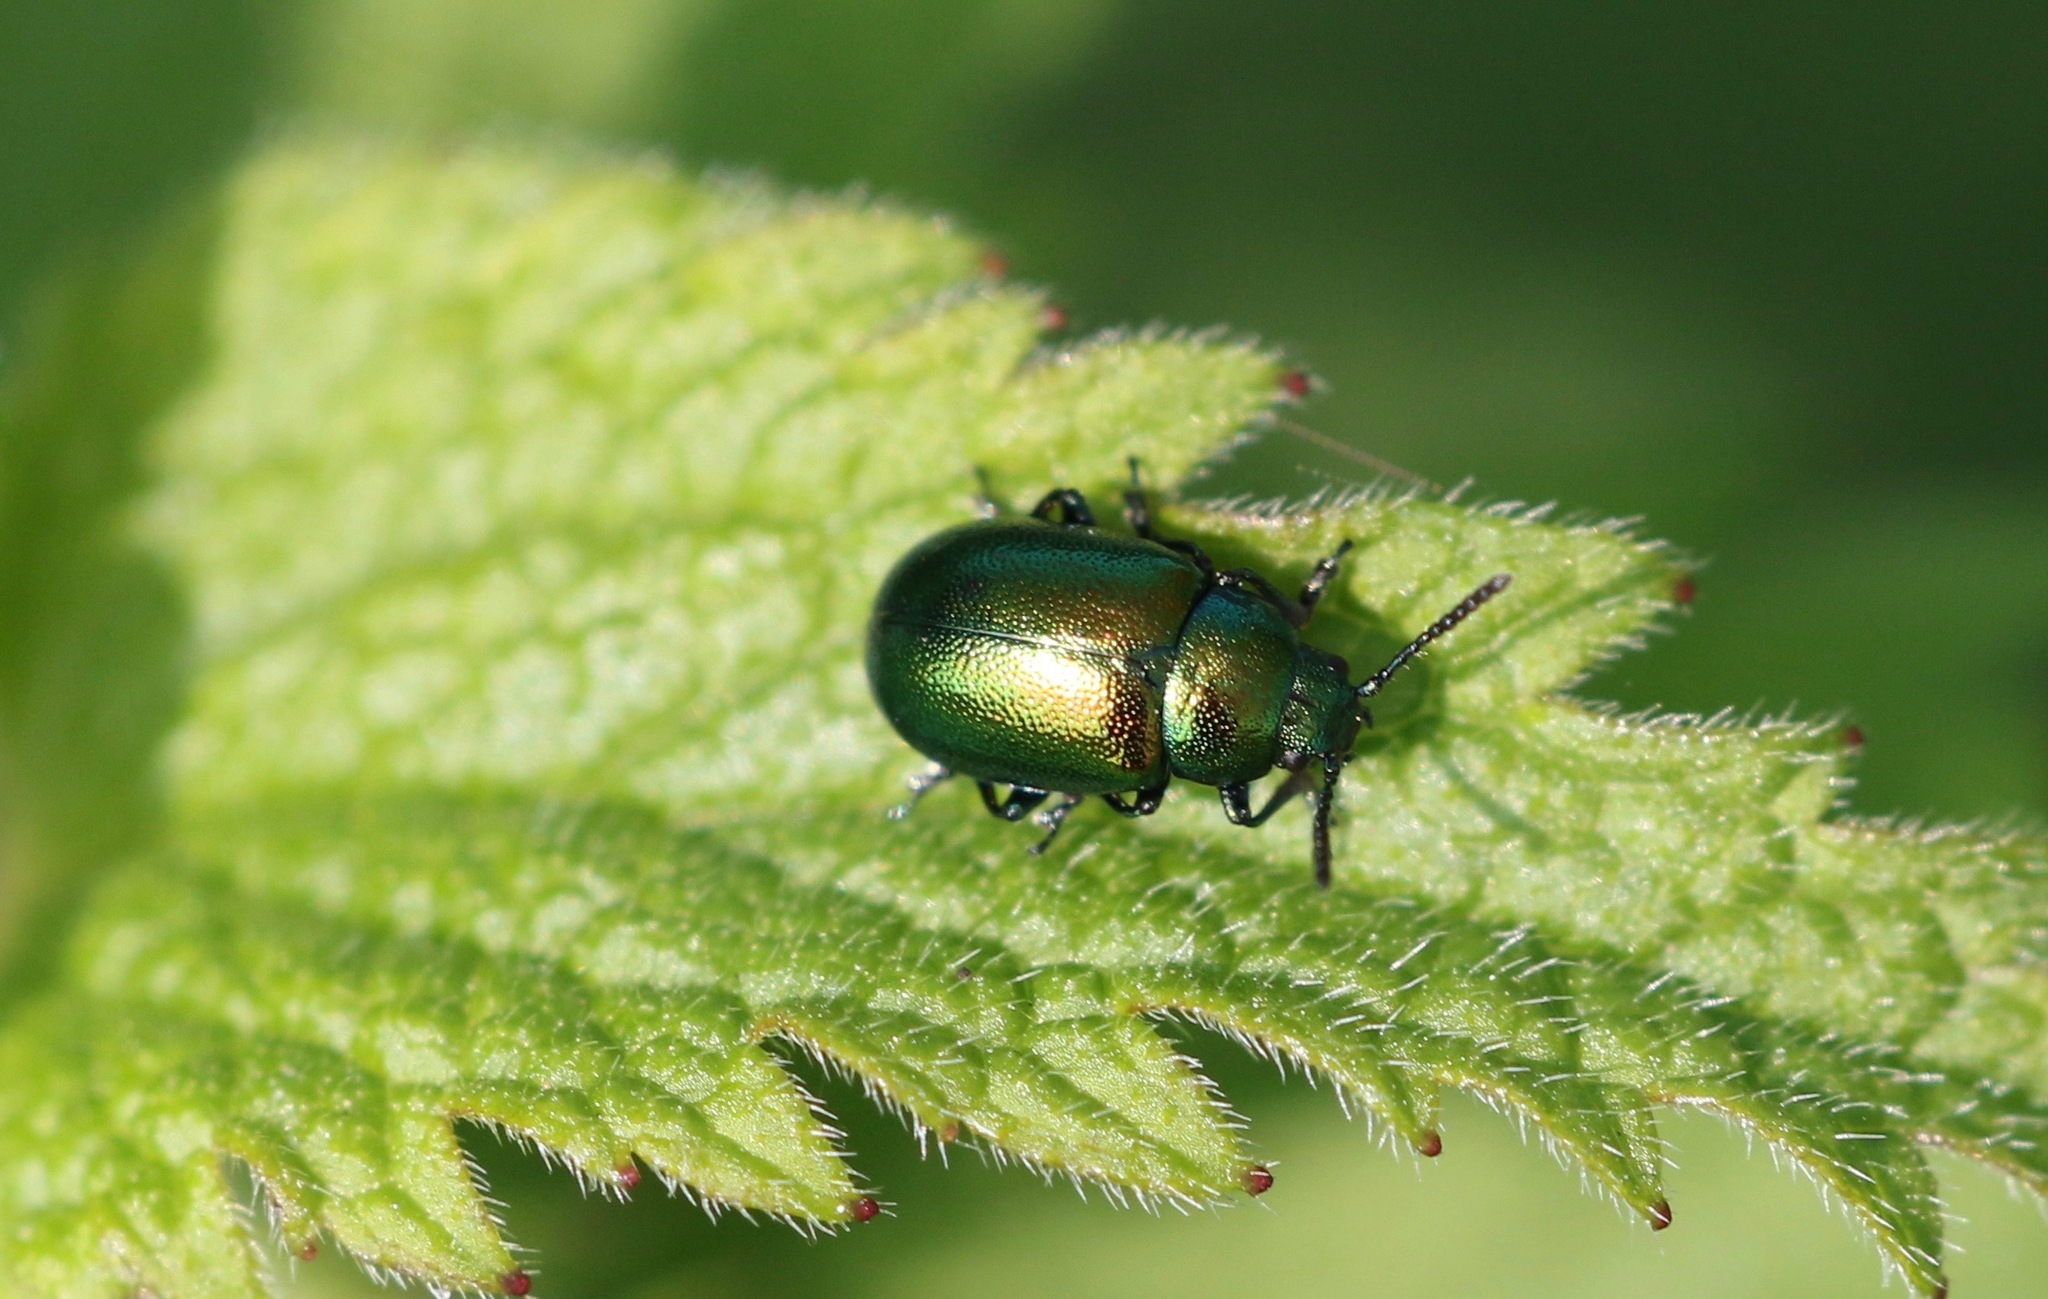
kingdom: Animalia
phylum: Arthropoda
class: Insecta
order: Coleoptera
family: Chrysomelidae
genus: Gastrophysa
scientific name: Gastrophysa viridula
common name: Green dock beetle
